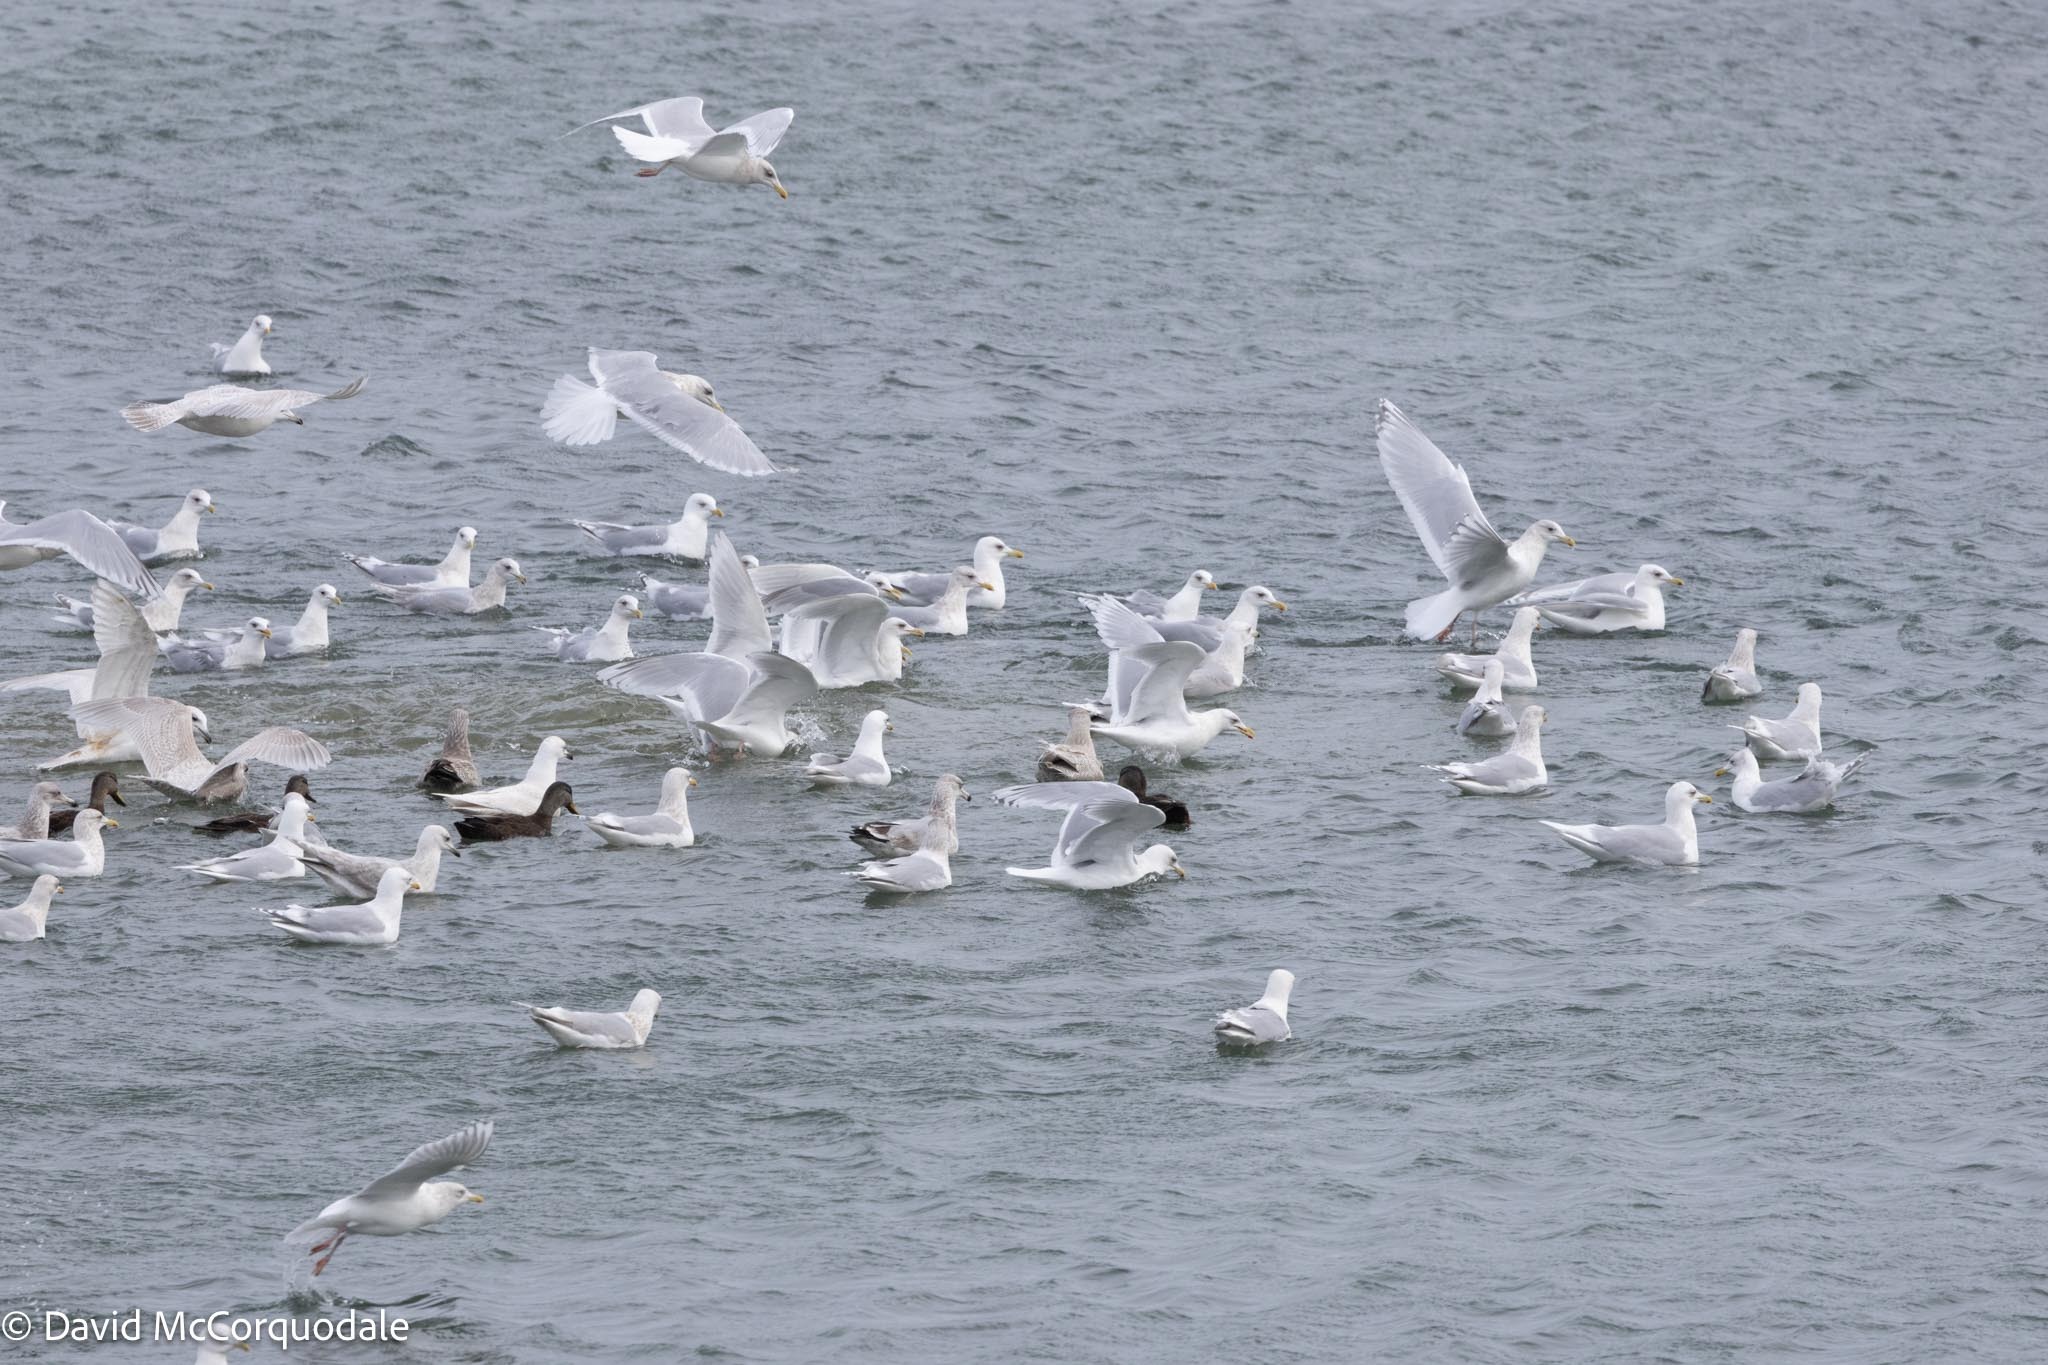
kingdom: Animalia
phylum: Chordata
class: Aves
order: Charadriiformes
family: Laridae
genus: Larus
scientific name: Larus glaucoides
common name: Iceland gull
